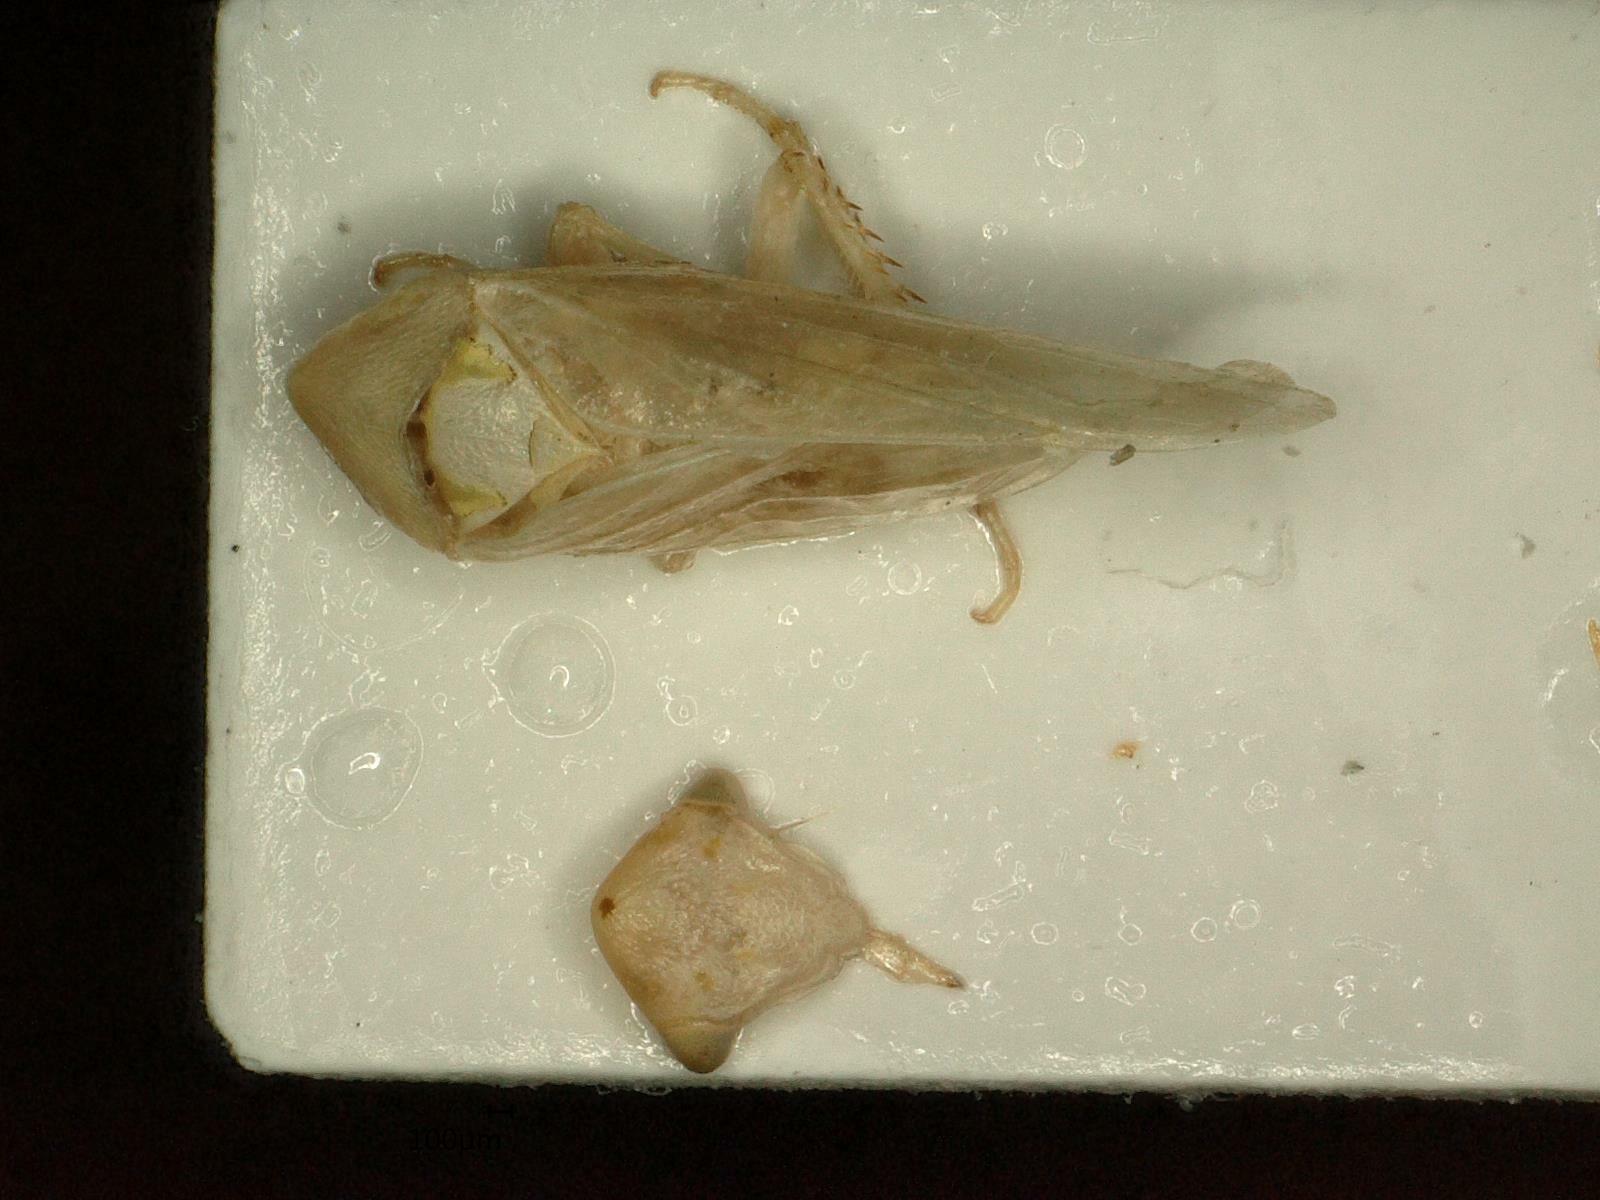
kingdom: Animalia
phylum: Arthropoda
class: Insecta
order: Hemiptera
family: Cicadellidae
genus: Macropsis
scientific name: Macropsis ocellata
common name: Leafhopper
